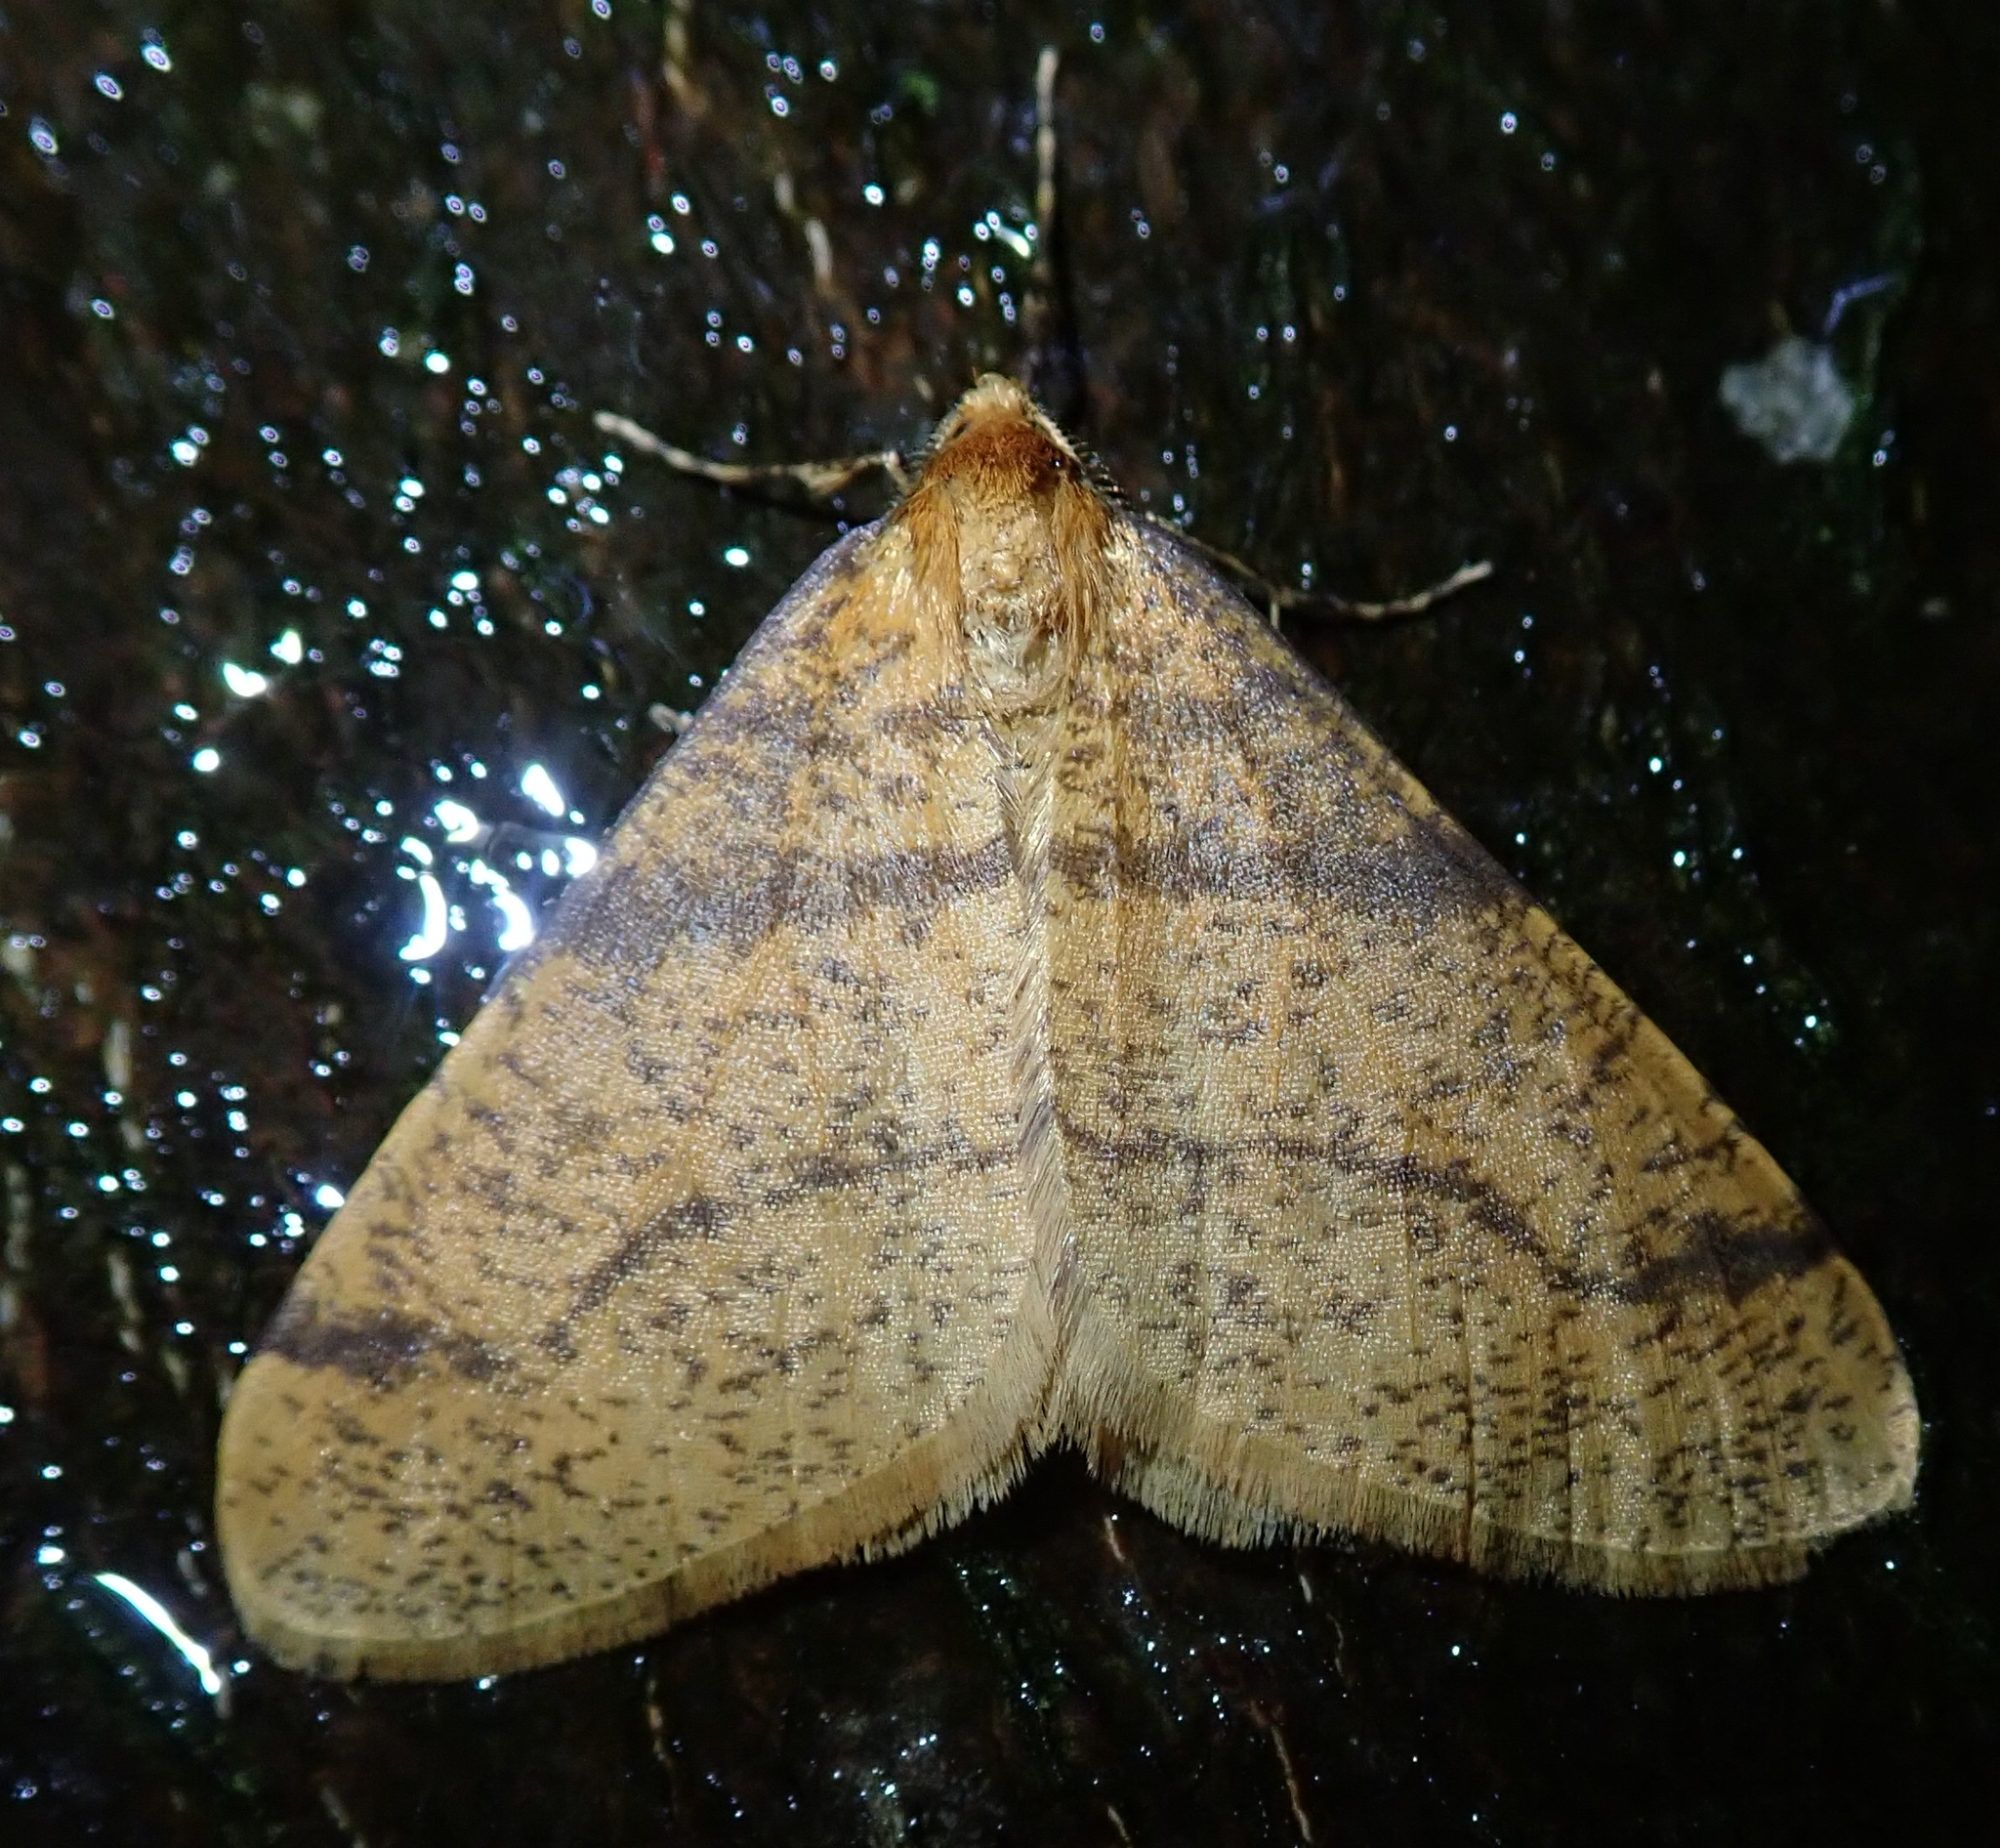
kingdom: Animalia
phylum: Arthropoda
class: Insecta
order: Lepidoptera
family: Geometridae
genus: Agriopis
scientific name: Agriopis aurantiaria
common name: Scarce umber
